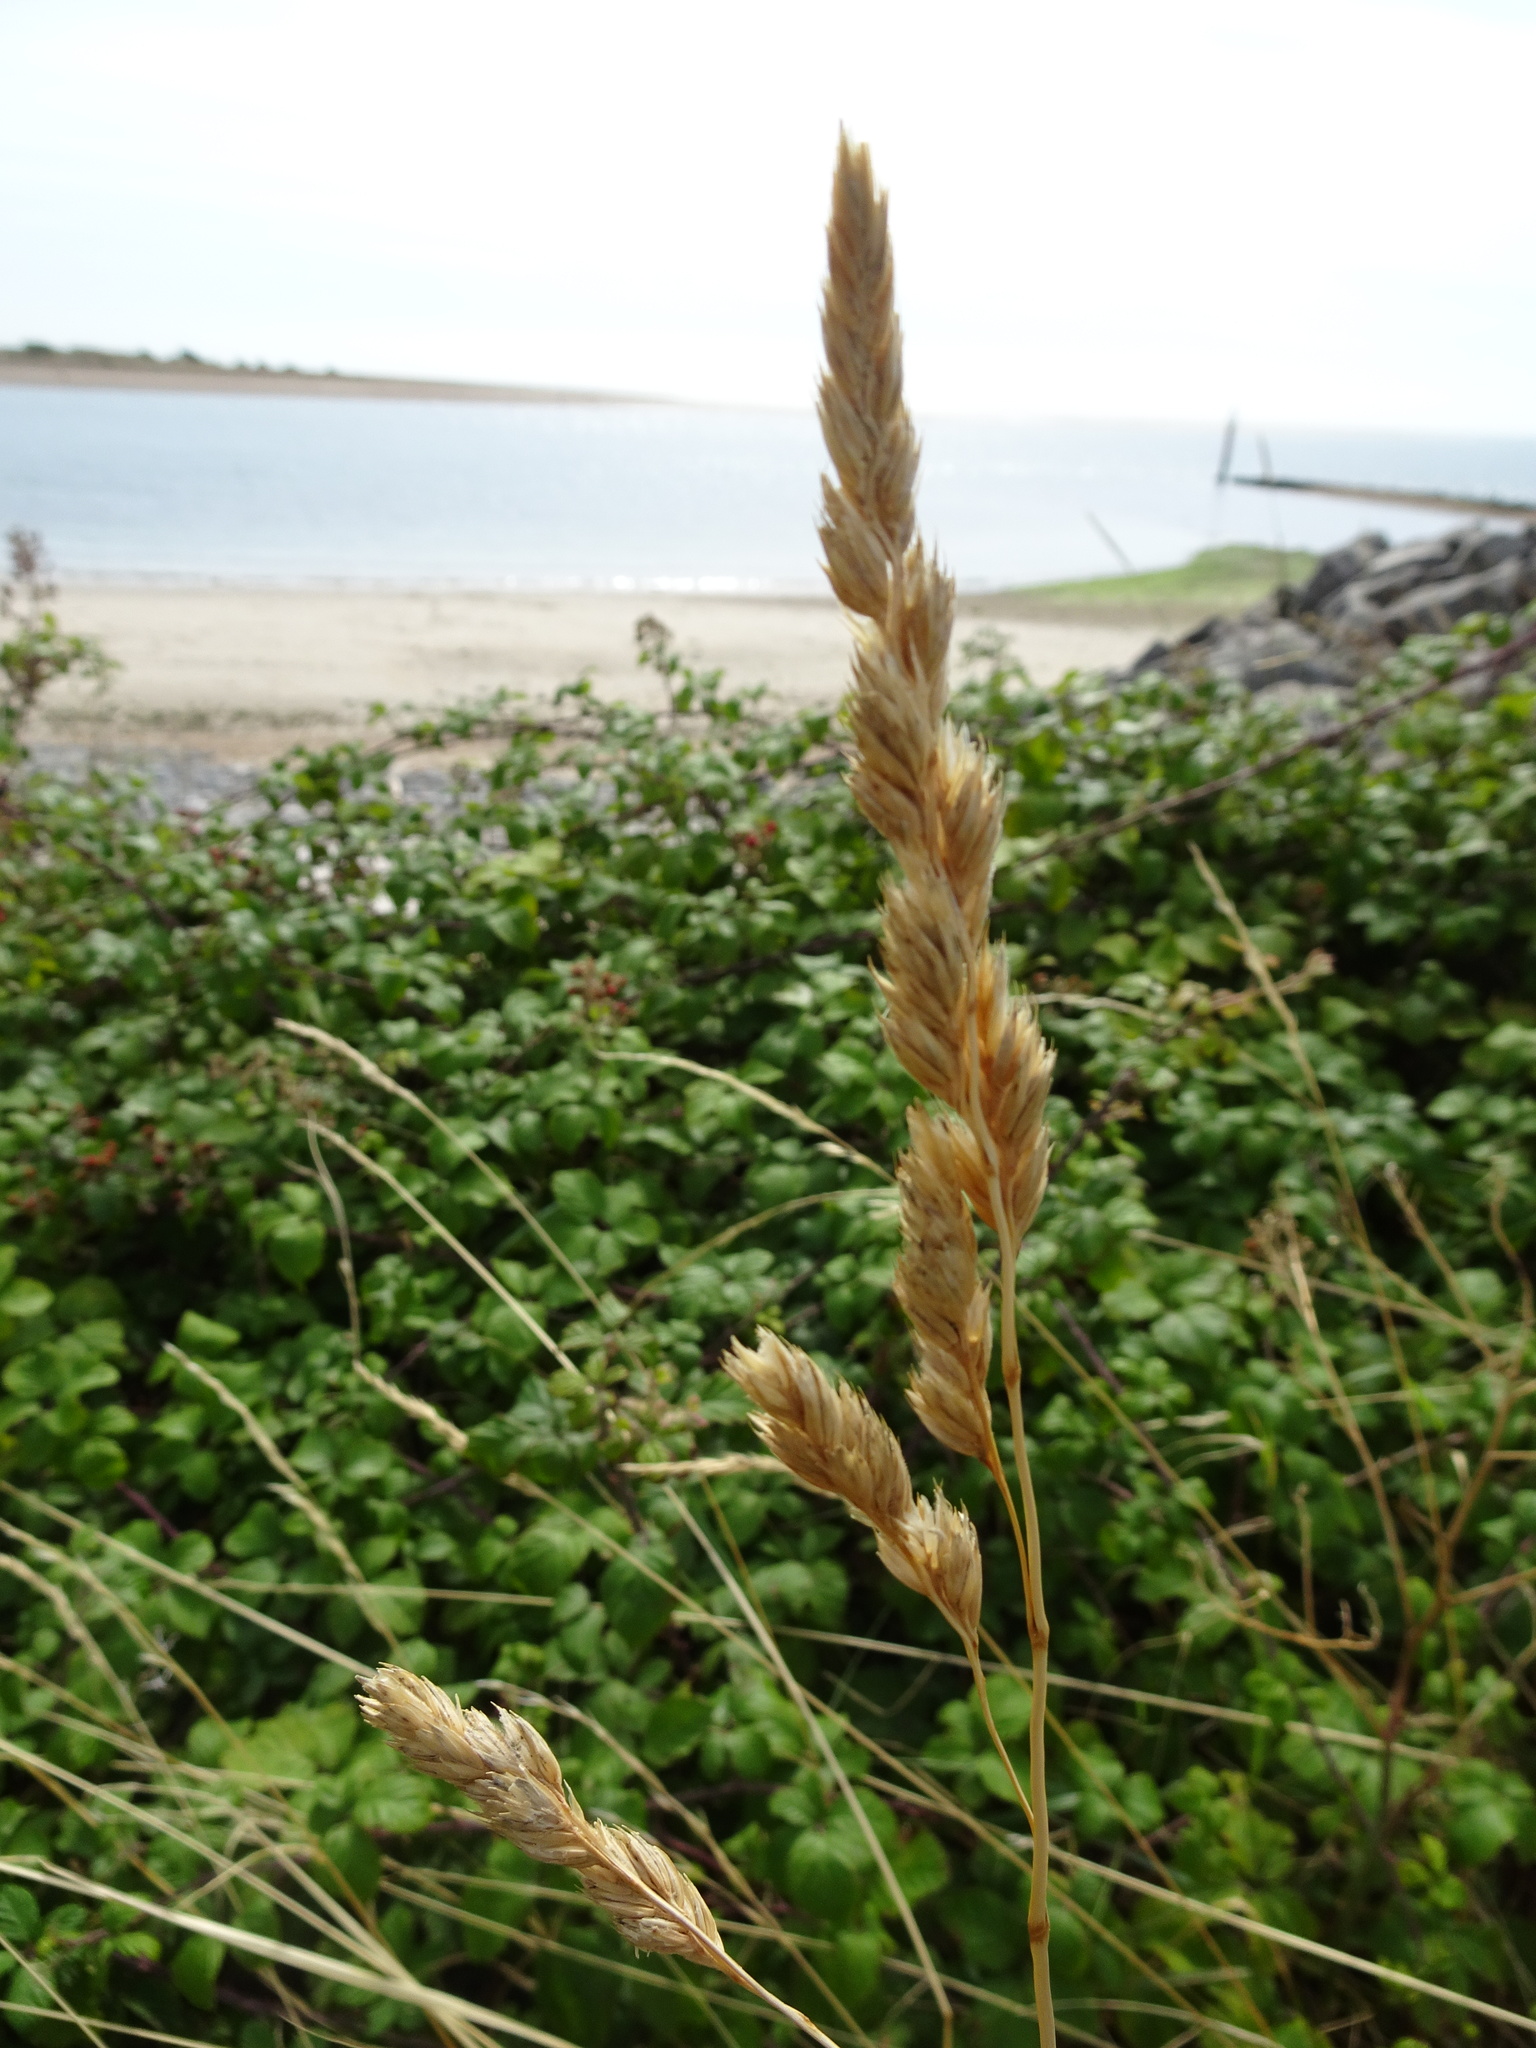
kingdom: Plantae
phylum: Tracheophyta
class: Liliopsida
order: Poales
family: Poaceae
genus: Dactylis
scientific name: Dactylis glomerata
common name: Orchardgrass
